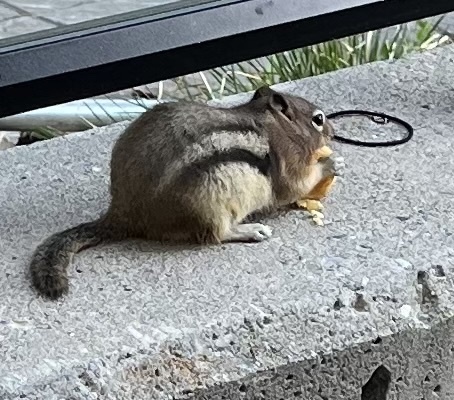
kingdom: Animalia
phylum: Chordata
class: Mammalia
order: Rodentia
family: Sciuridae
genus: Callospermophilus
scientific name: Callospermophilus lateralis
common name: Golden-mantled ground squirrel
